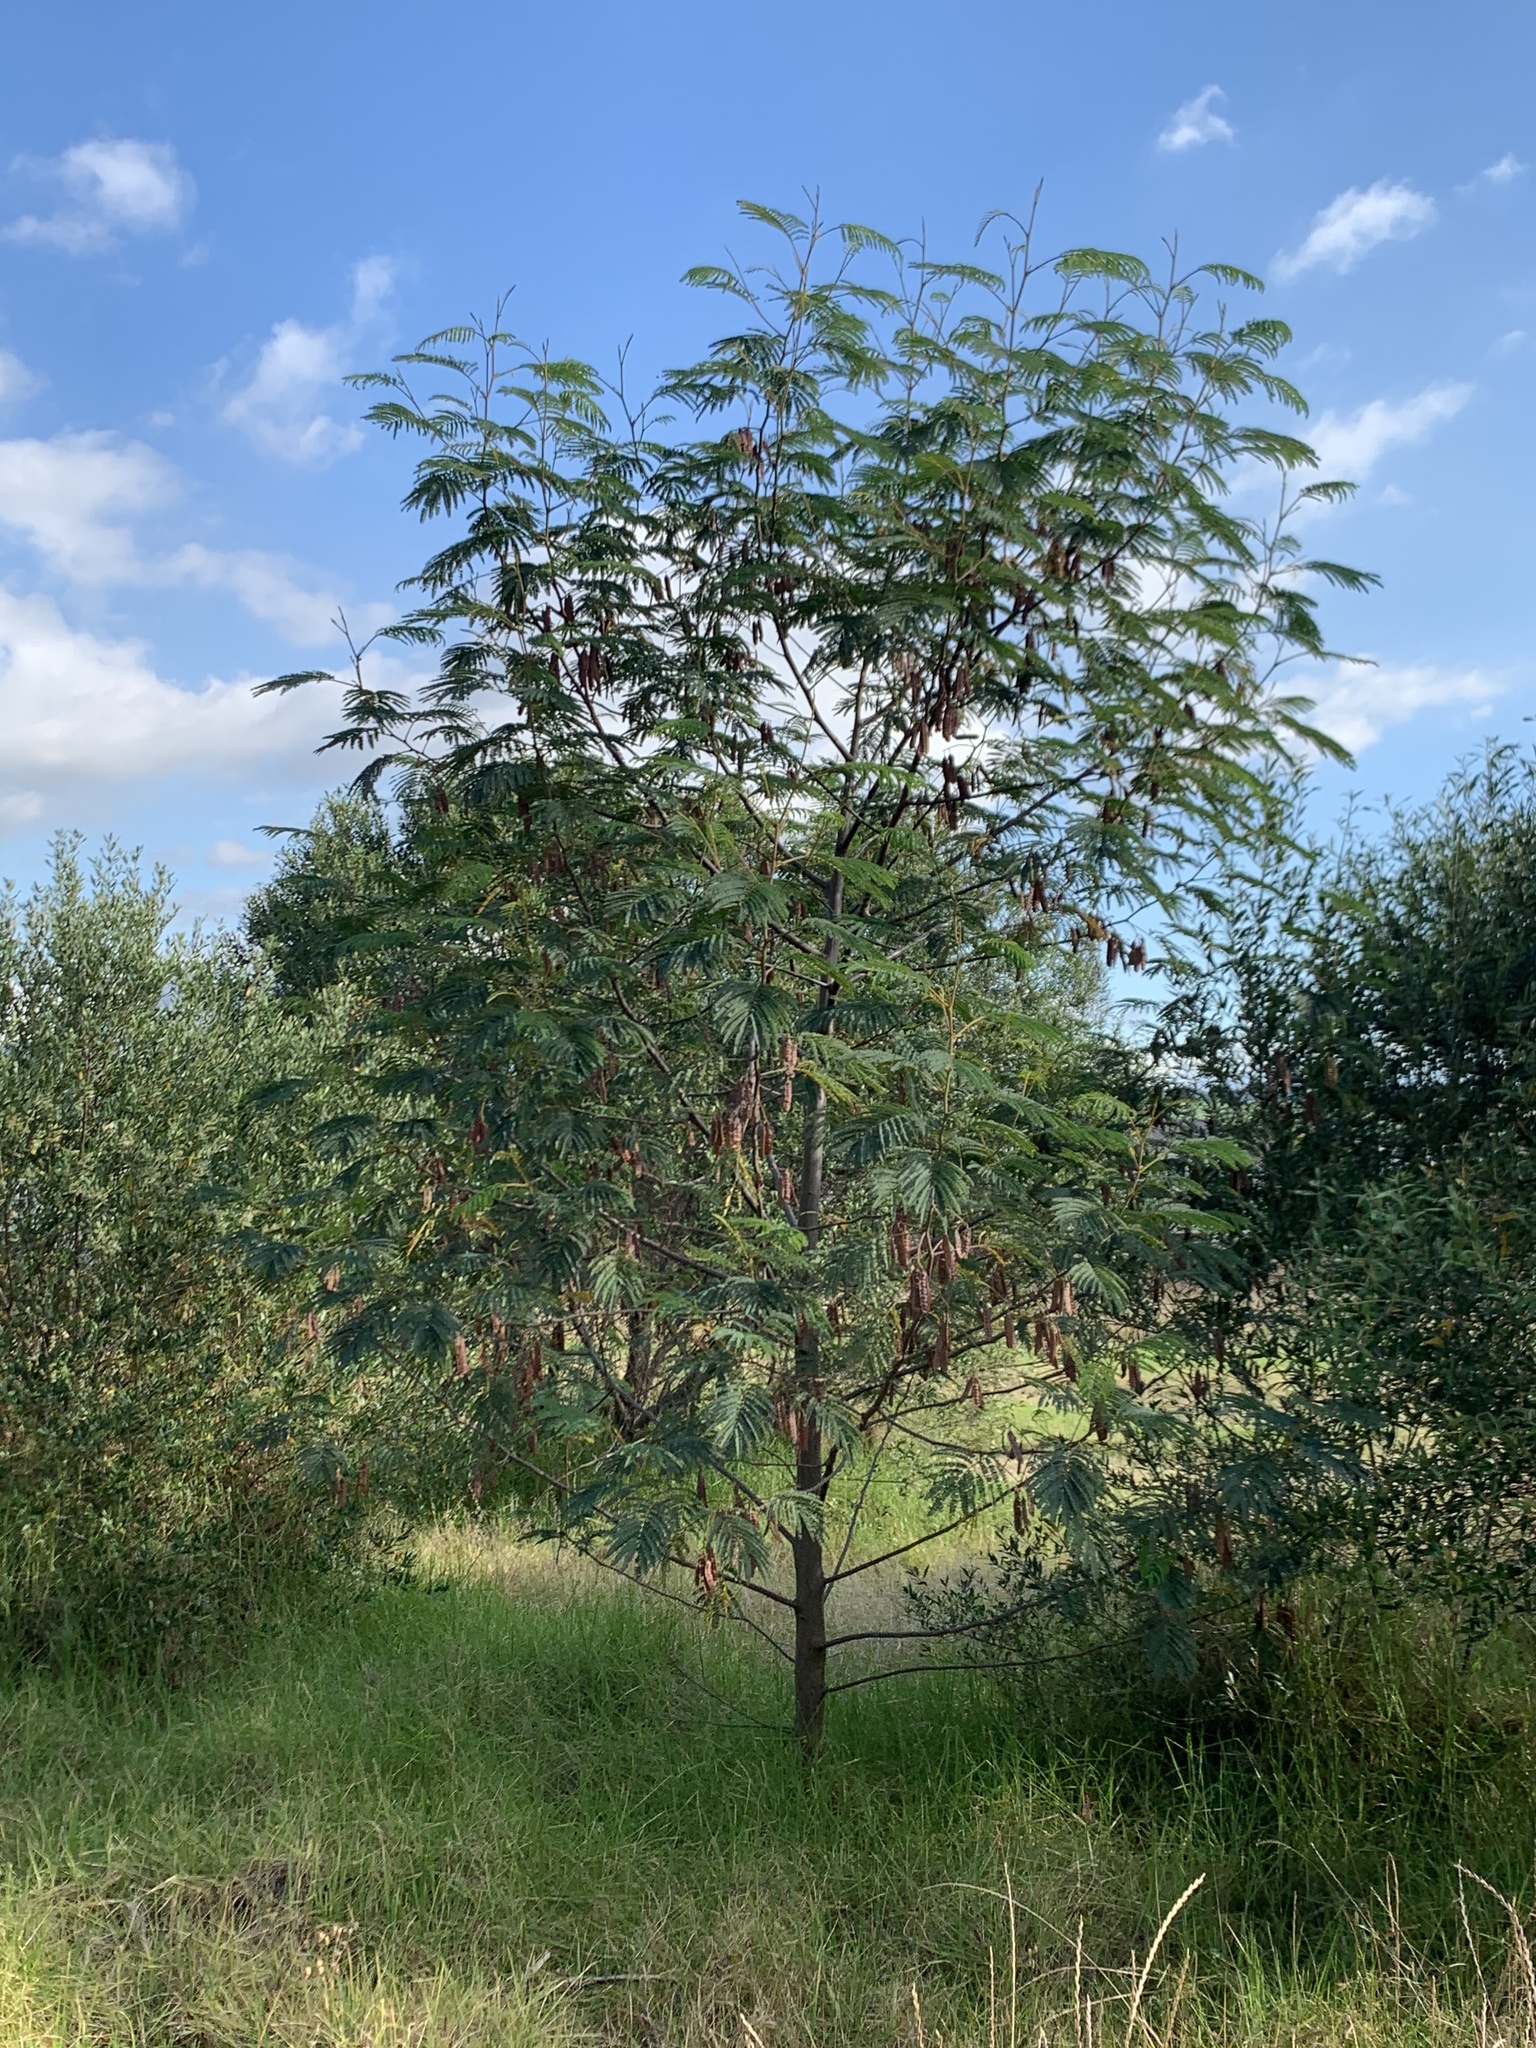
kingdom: Plantae
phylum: Tracheophyta
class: Magnoliopsida
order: Fabales
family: Fabaceae
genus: Paraserianthes
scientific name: Paraserianthes lophantha
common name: Plume albizia
